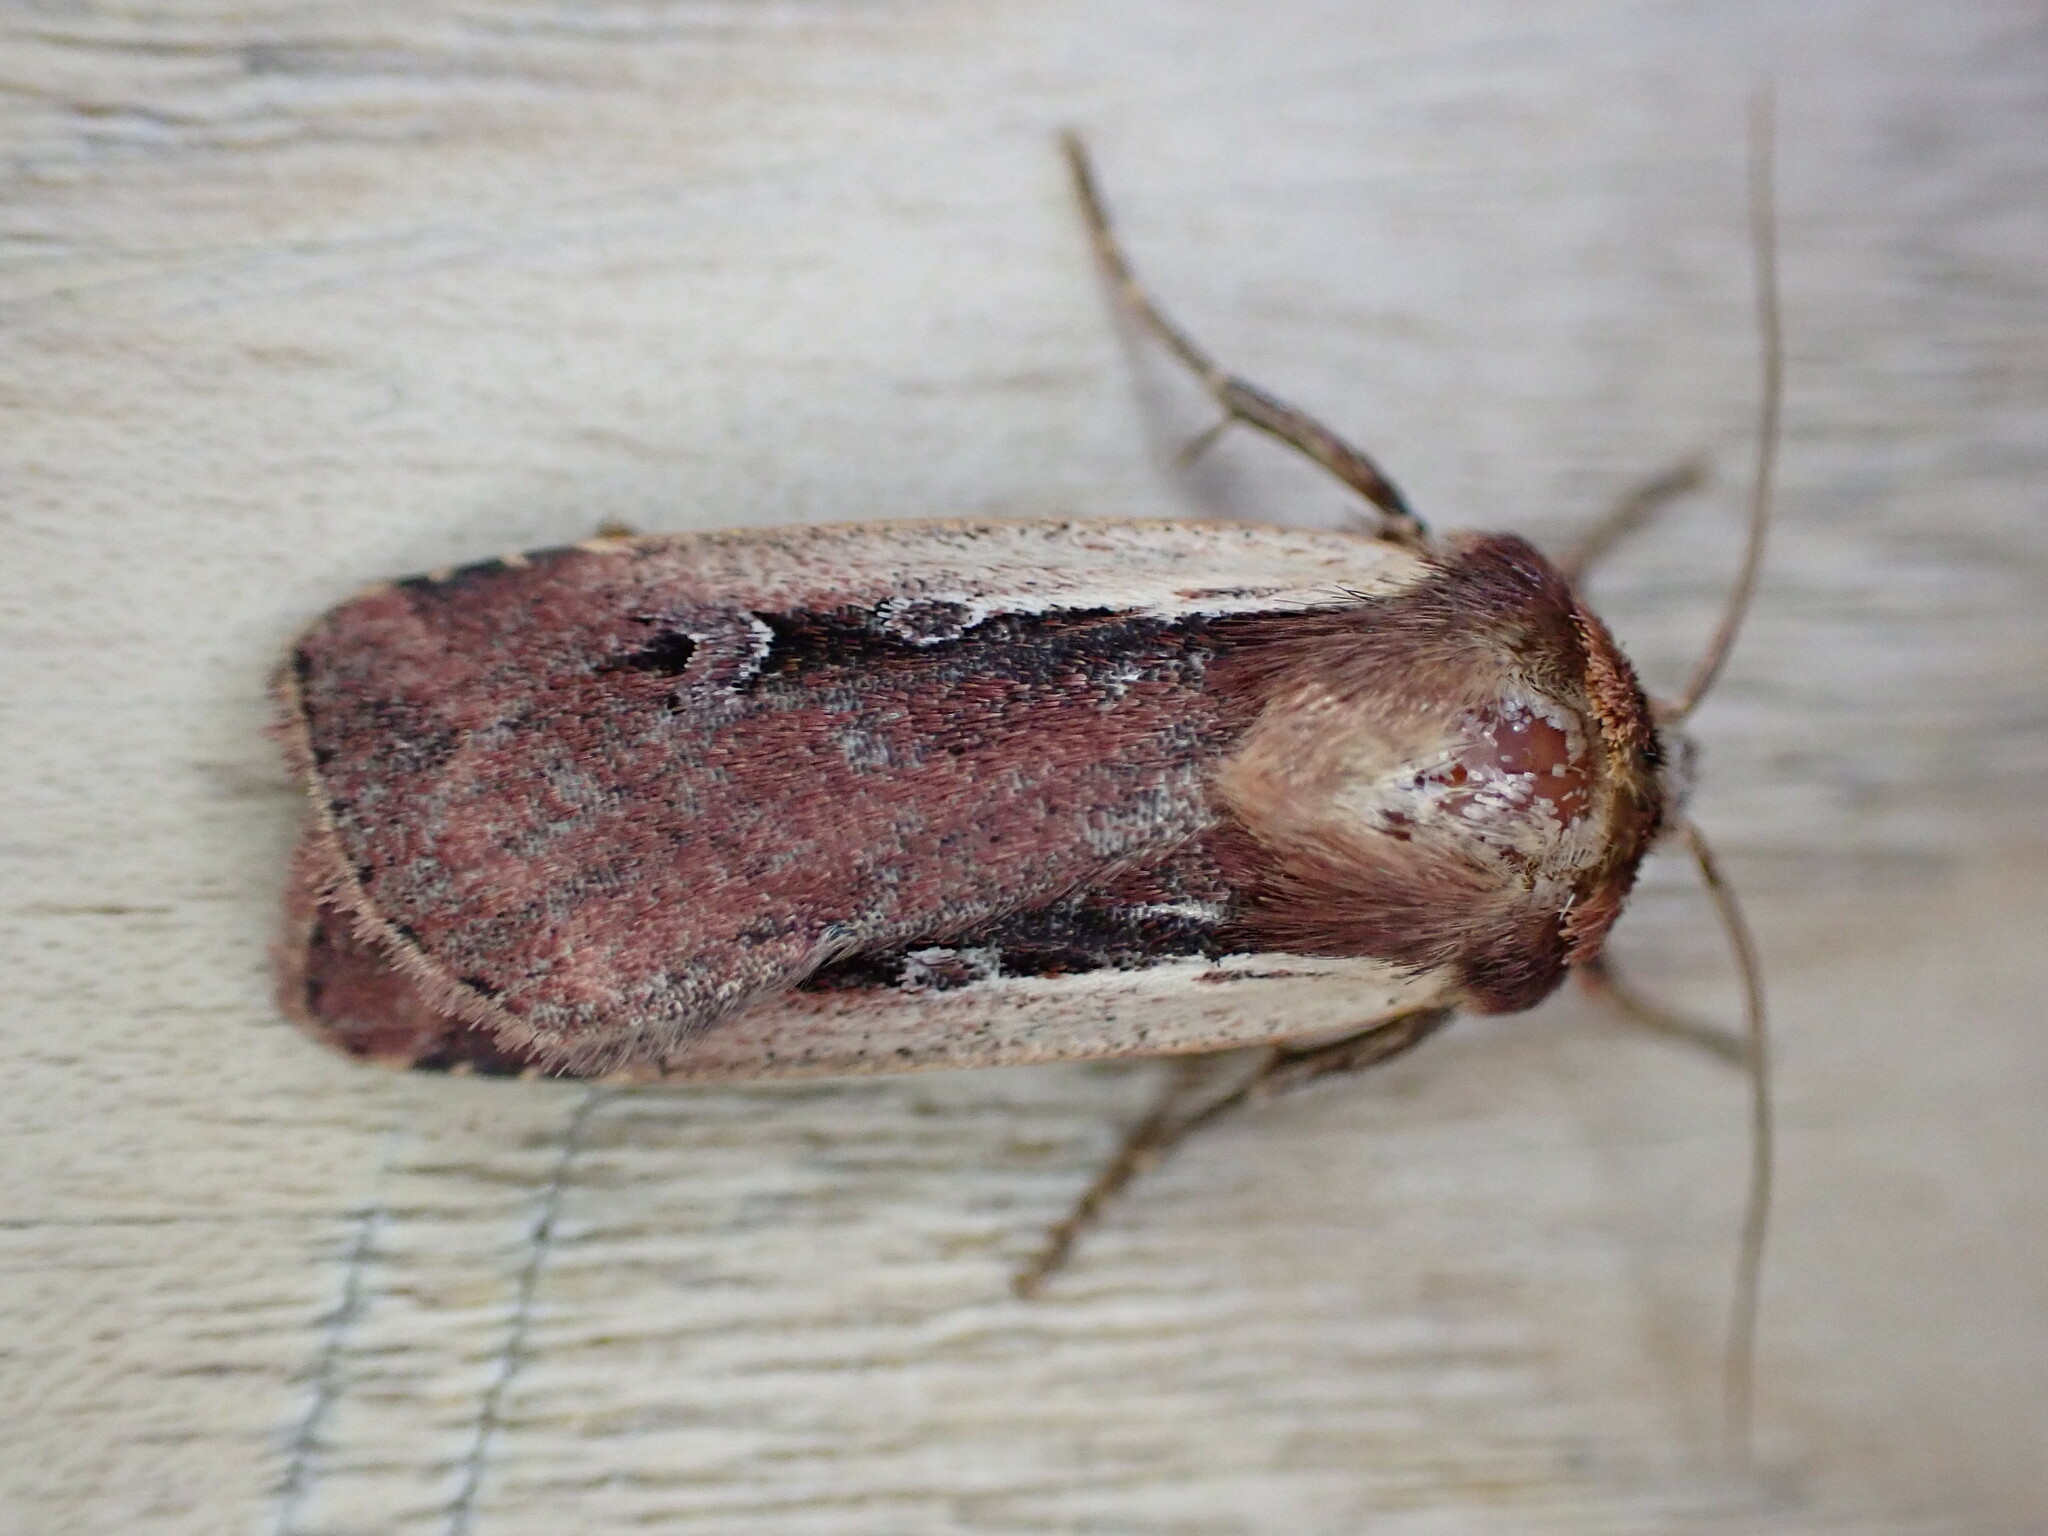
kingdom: Animalia
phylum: Arthropoda
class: Insecta
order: Lepidoptera
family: Noctuidae
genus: Ochropleura
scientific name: Ochropleura plecta
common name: Flame shoulder
